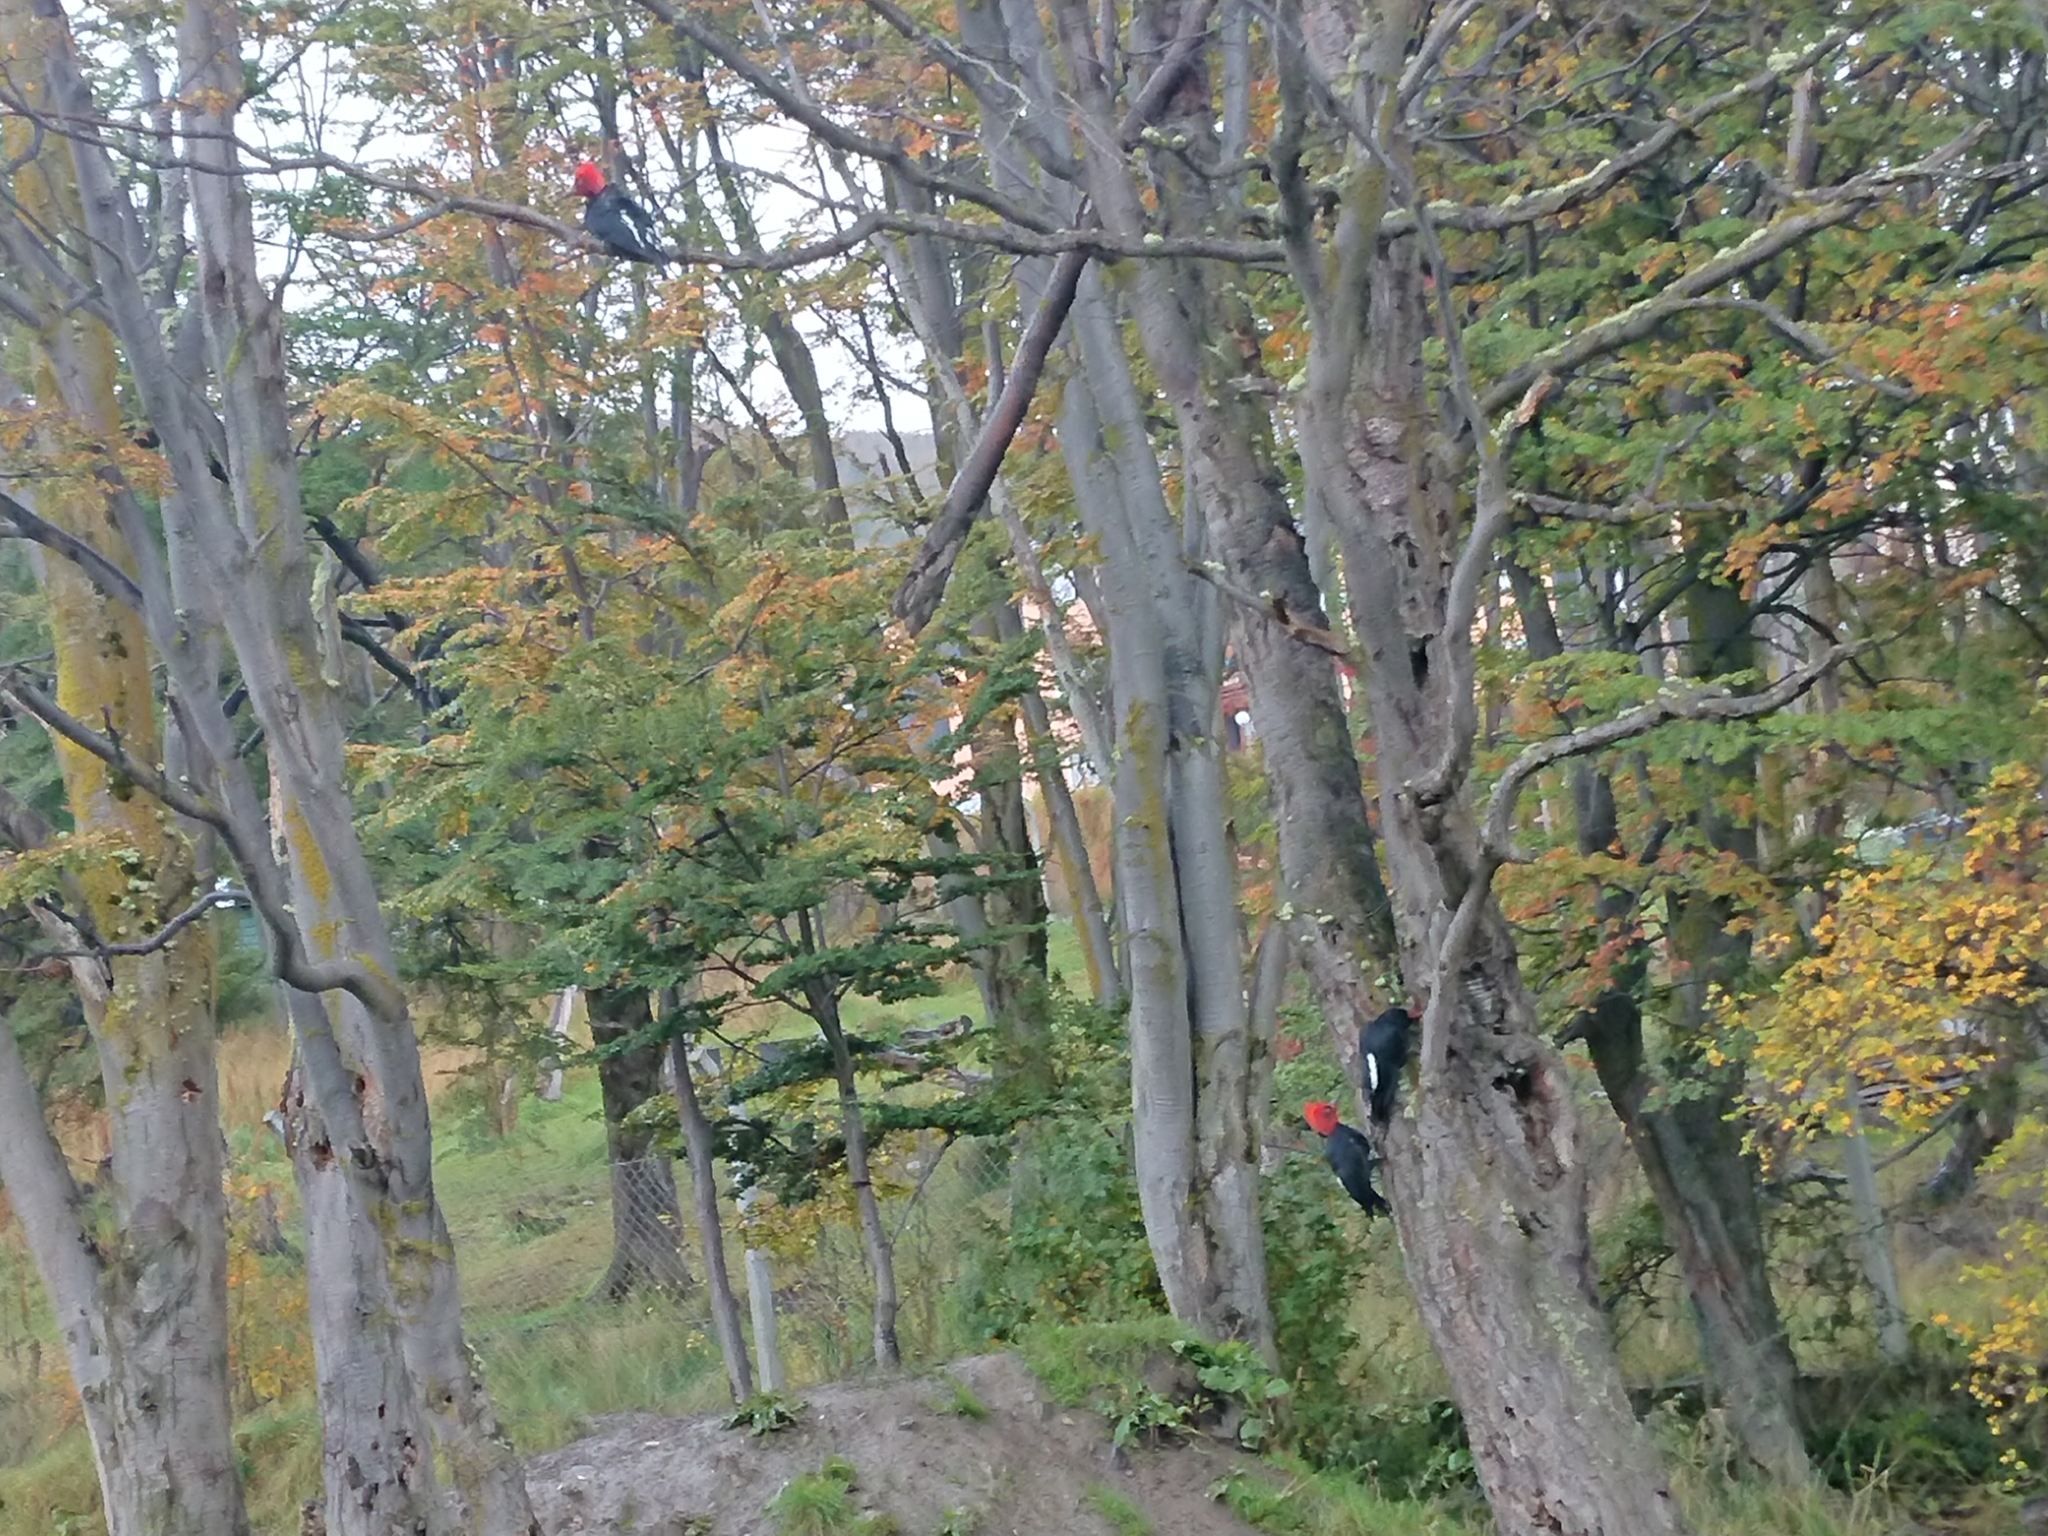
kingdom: Animalia
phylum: Chordata
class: Aves
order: Piciformes
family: Picidae
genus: Campephilus
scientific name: Campephilus magellanicus
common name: Magellanic woodpecker
